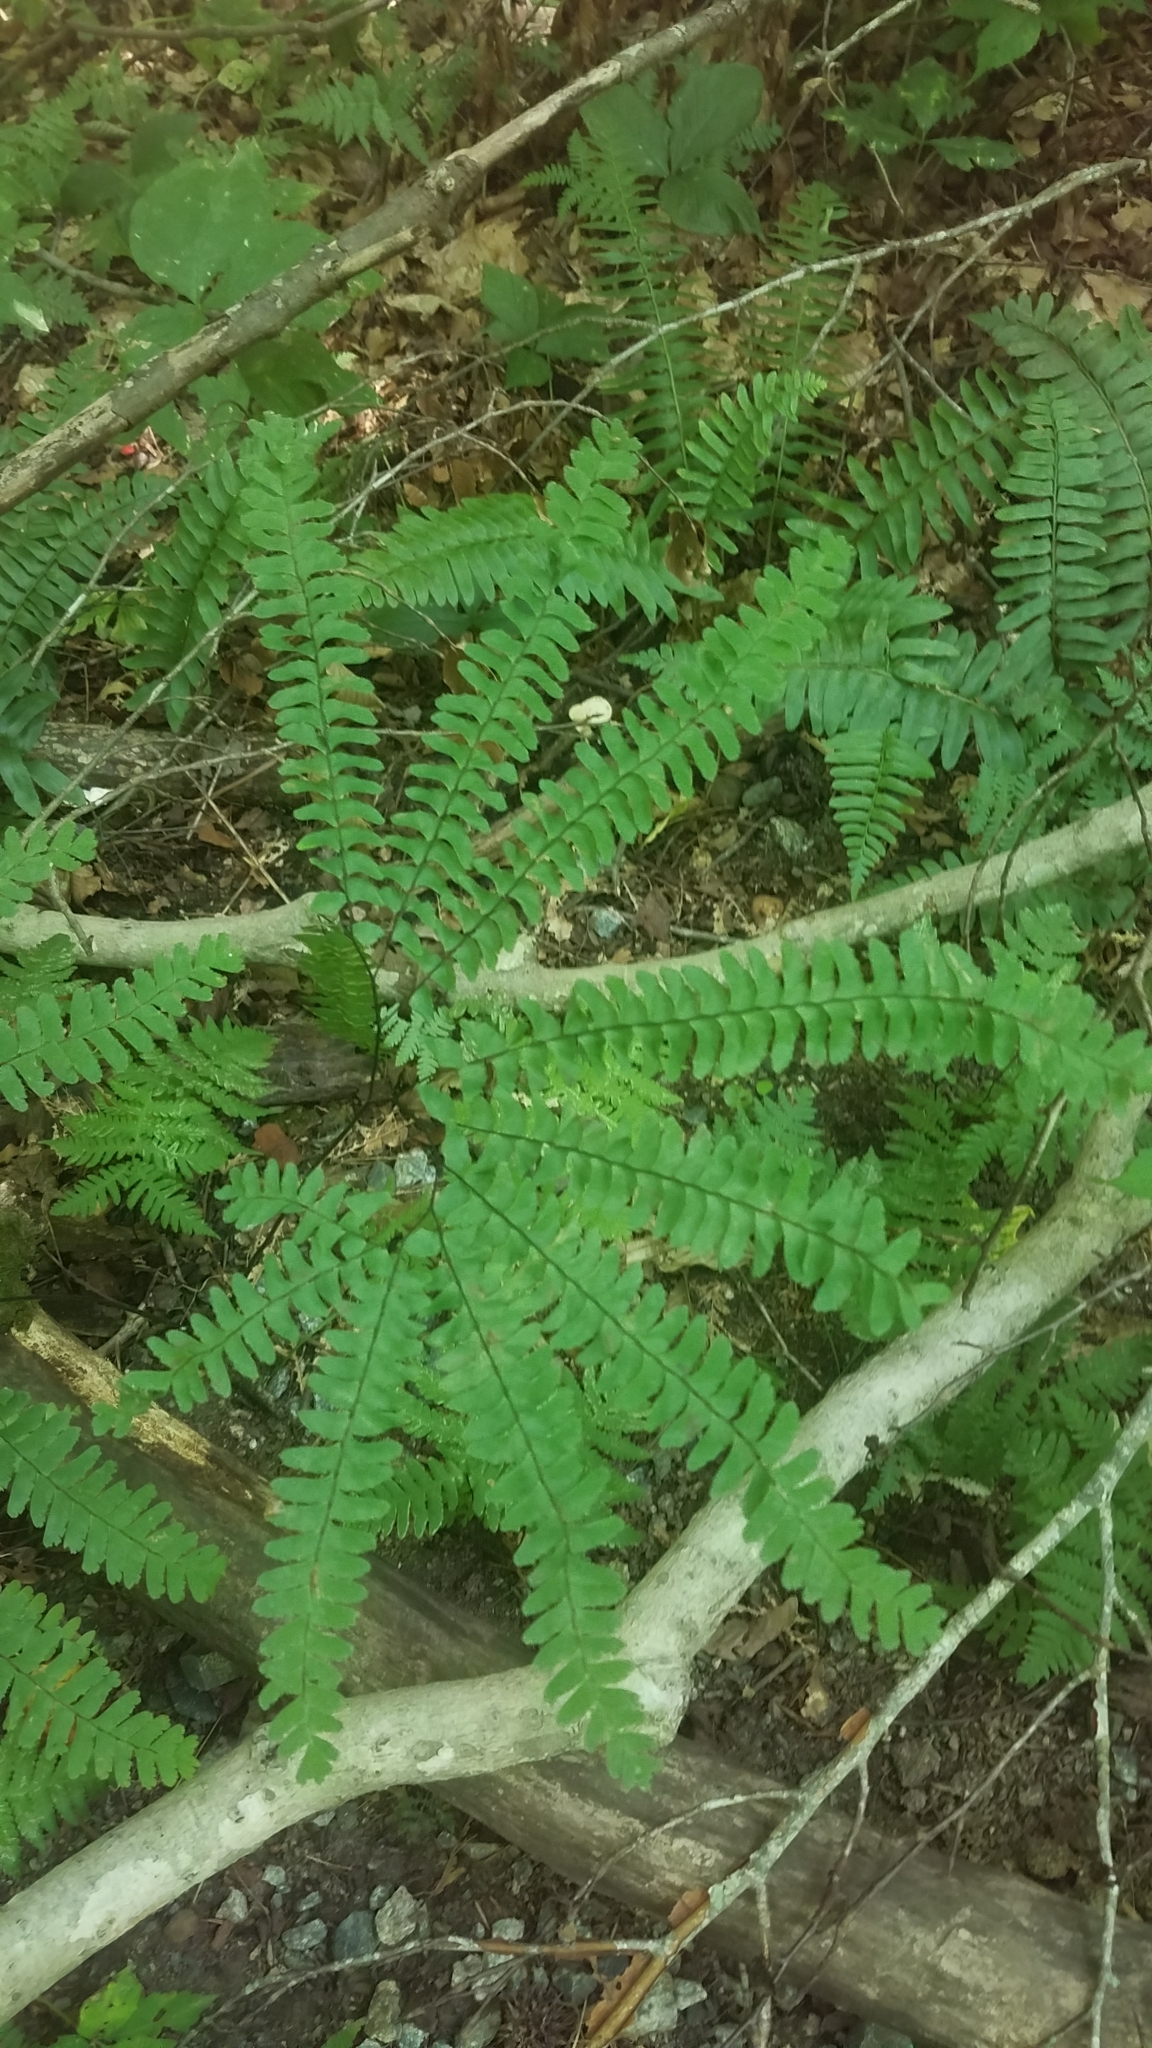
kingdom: Plantae
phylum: Tracheophyta
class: Polypodiopsida
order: Polypodiales
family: Pteridaceae
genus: Adiantum
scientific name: Adiantum pedatum
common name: Five-finger fern
